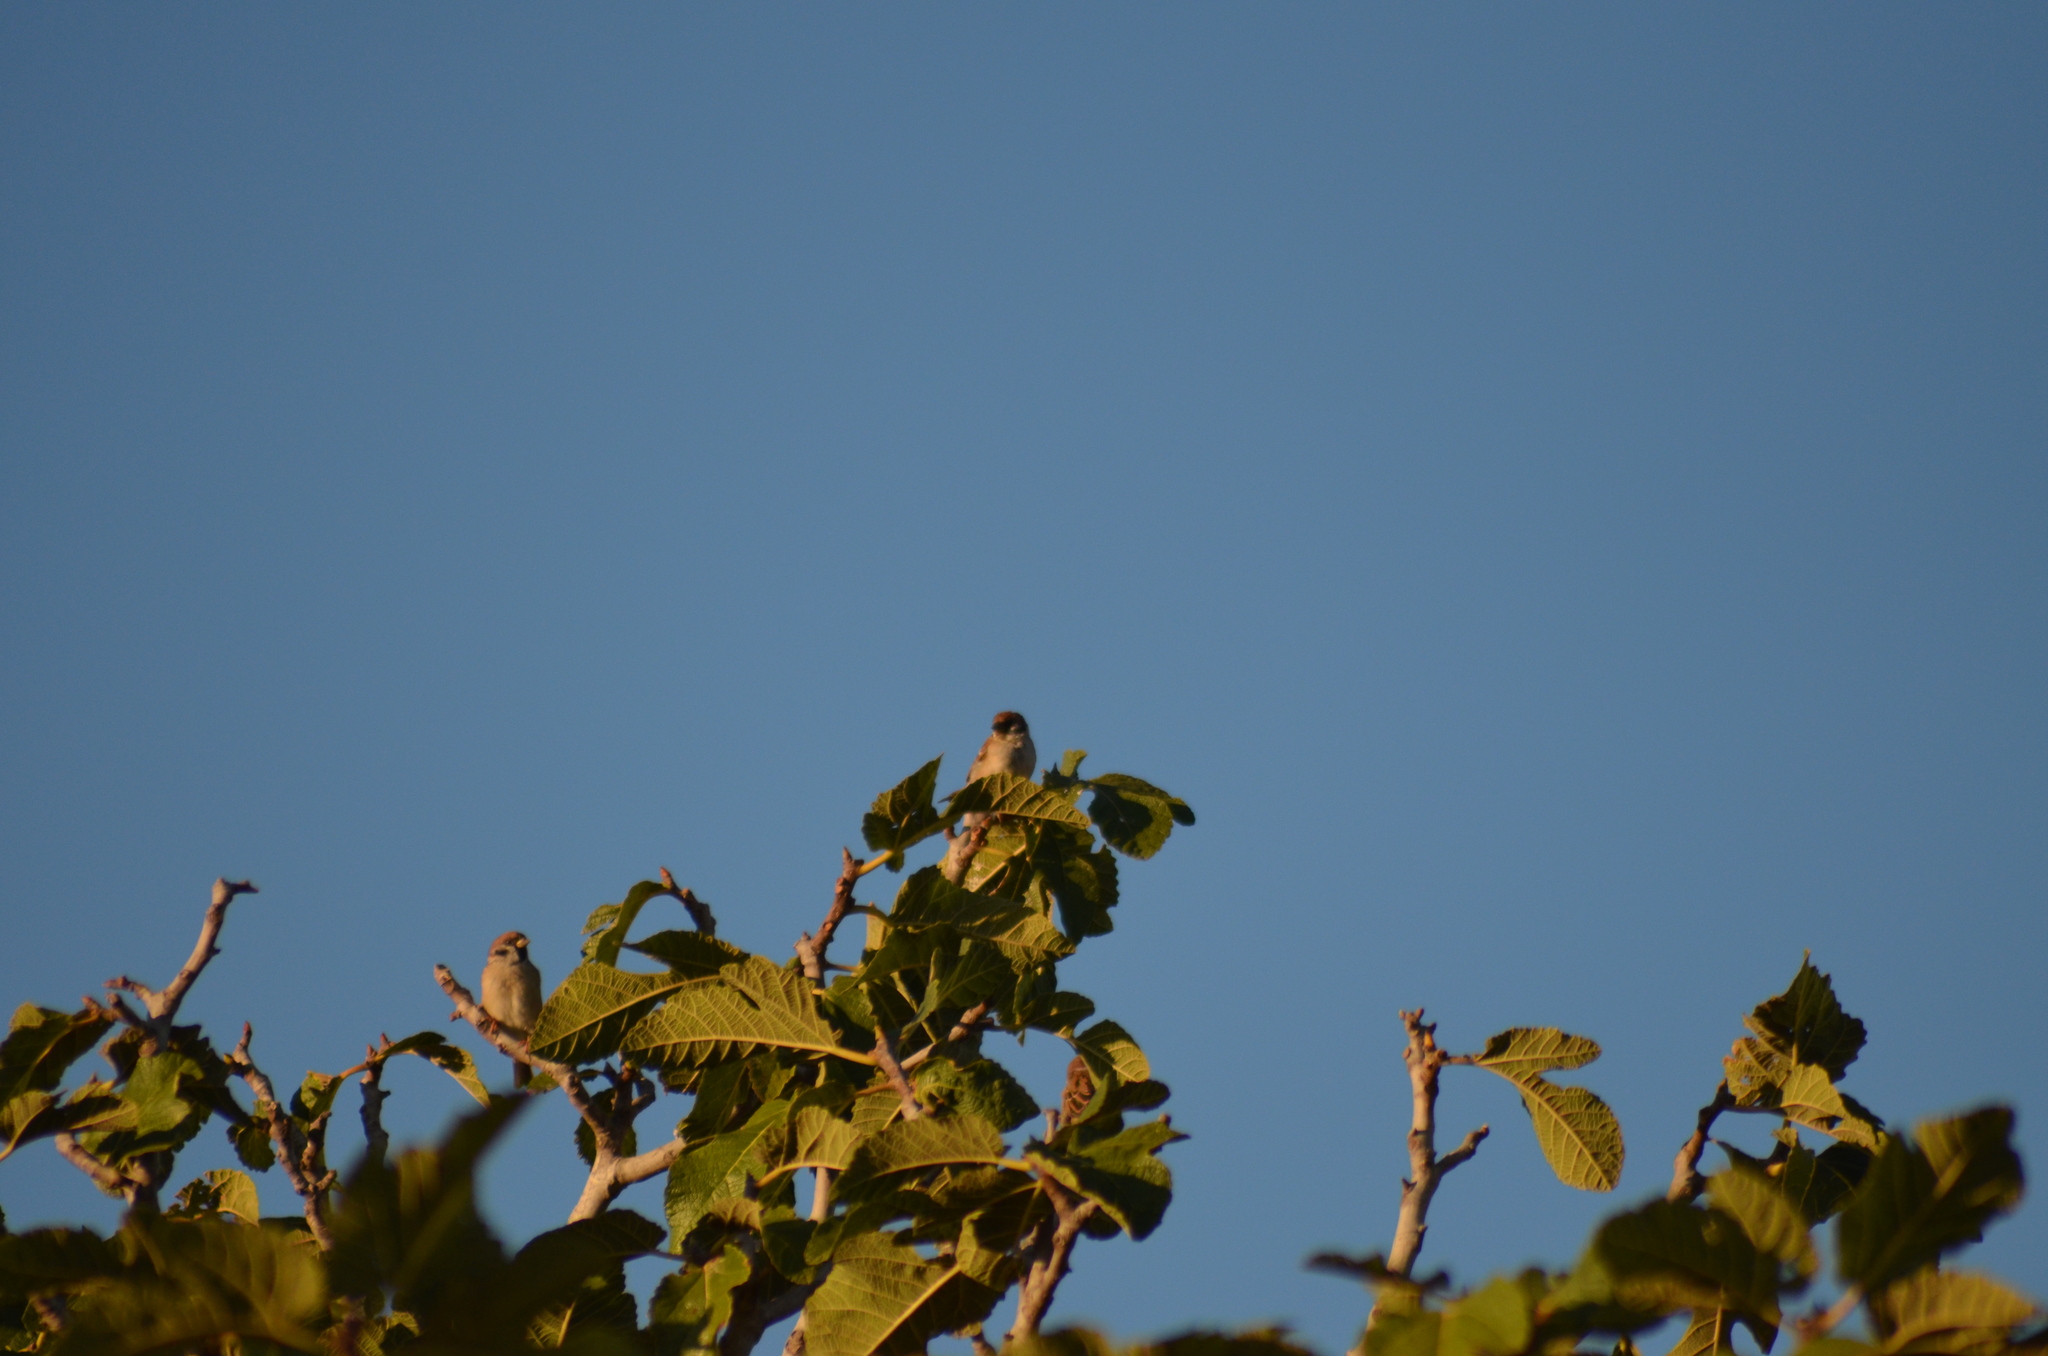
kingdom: Animalia
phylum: Chordata
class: Aves
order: Passeriformes
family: Passeridae
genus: Passer
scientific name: Passer montanus
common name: Eurasian tree sparrow
